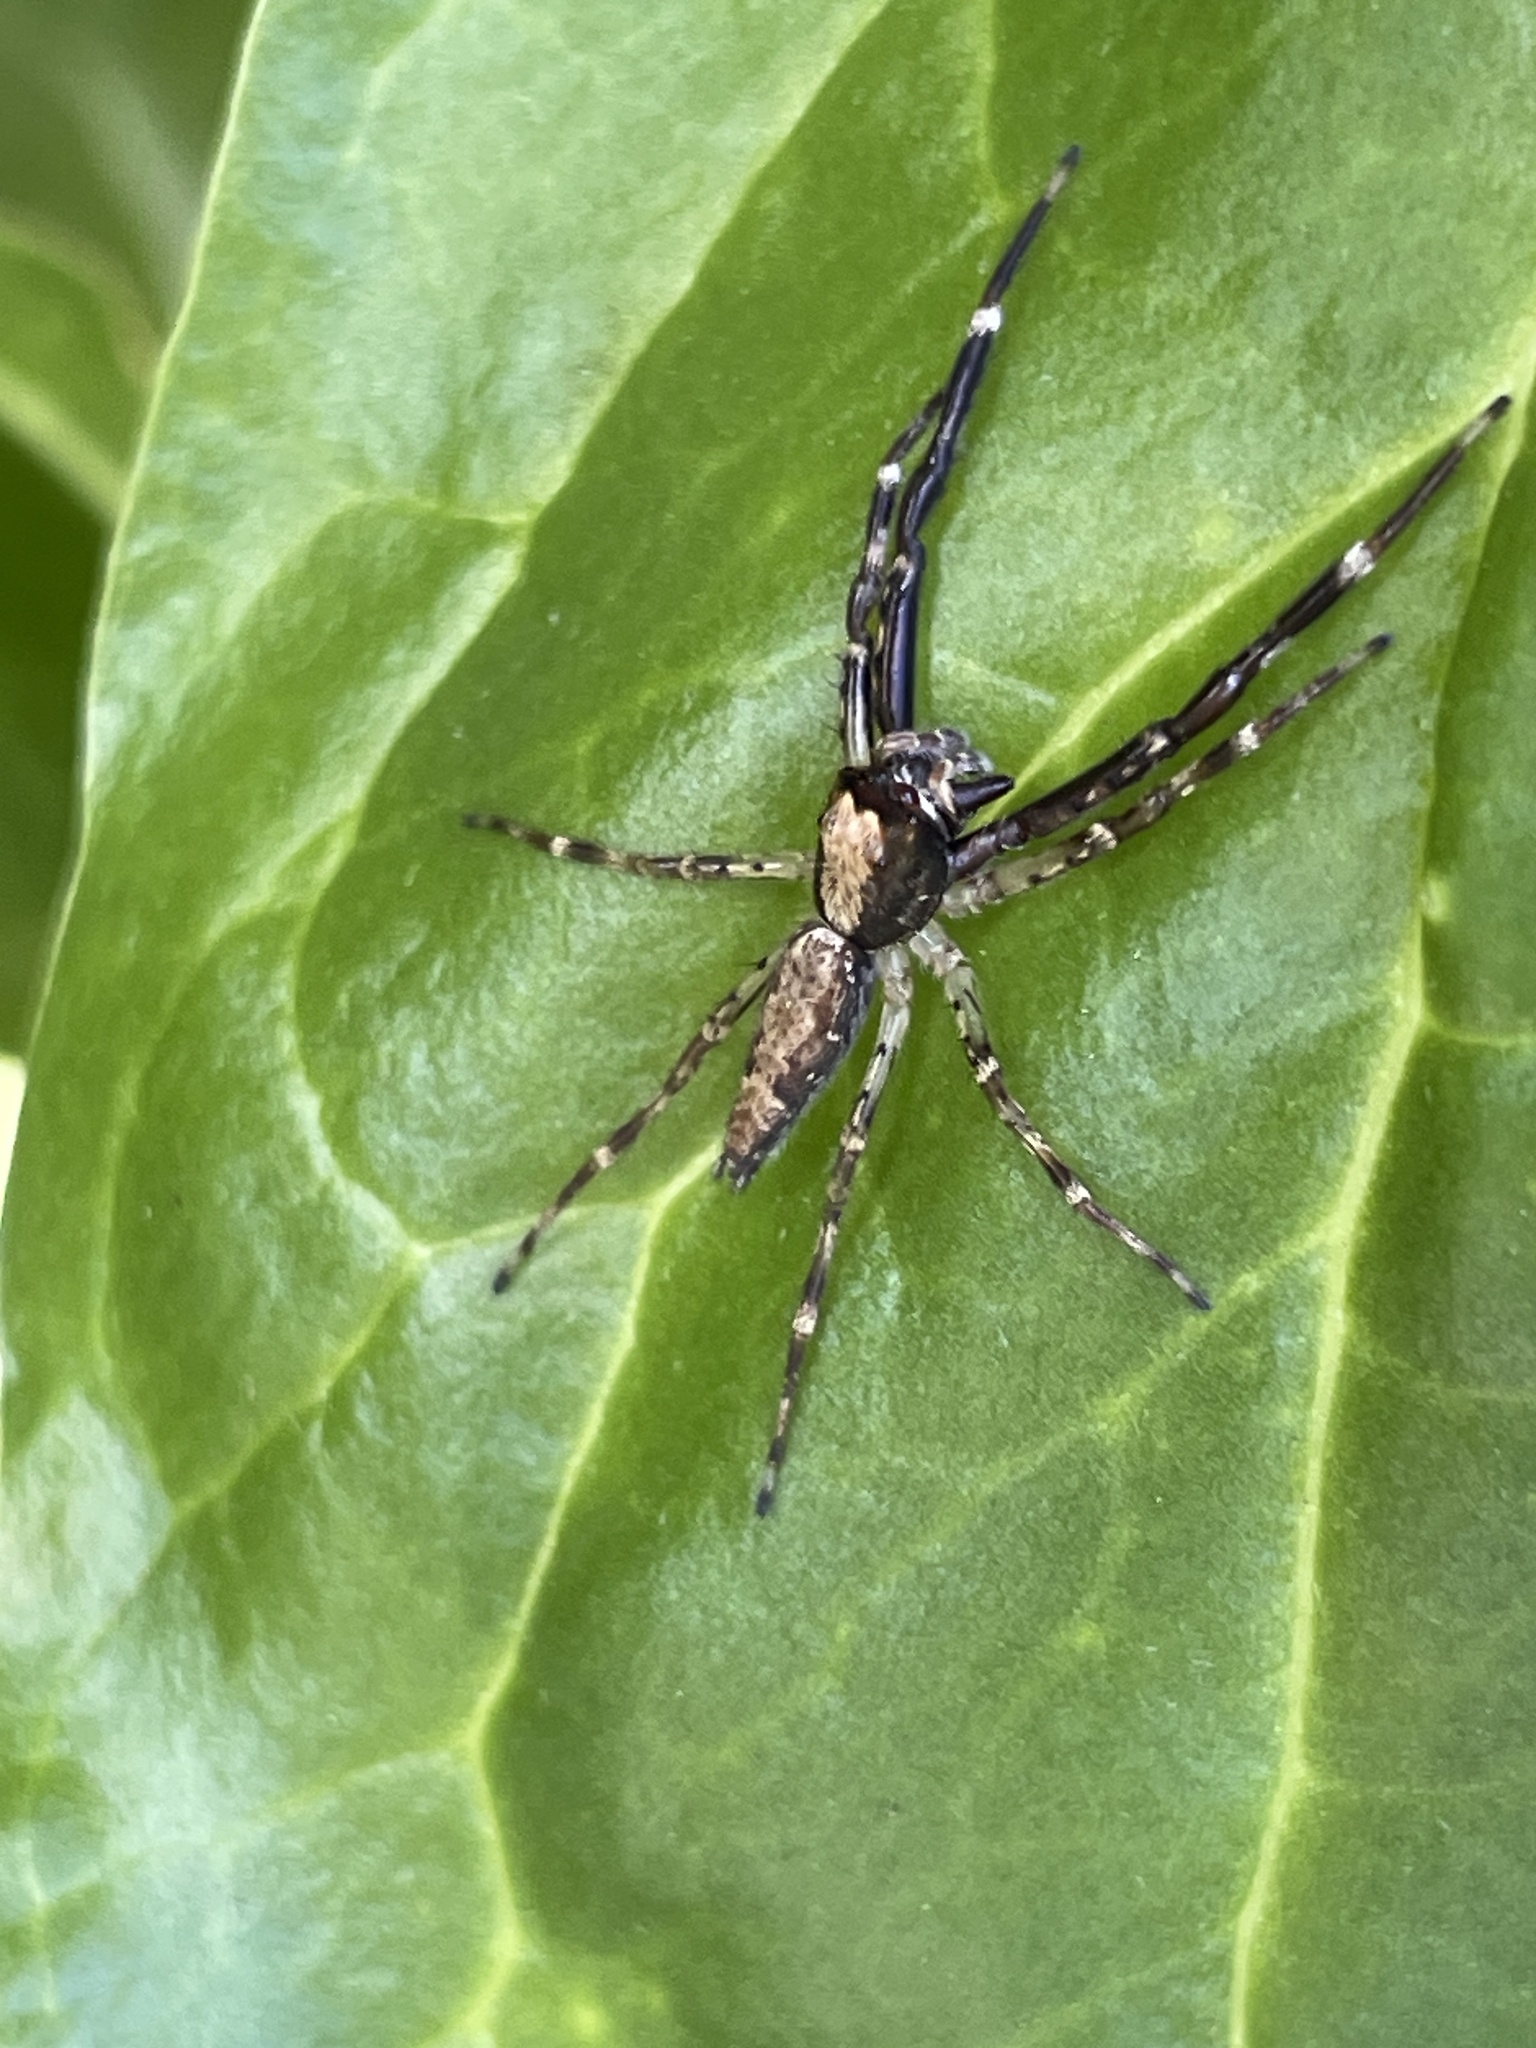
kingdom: Animalia
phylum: Arthropoda
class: Arachnida
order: Araneae
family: Salticidae
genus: Helpis
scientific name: Helpis minitabunda
